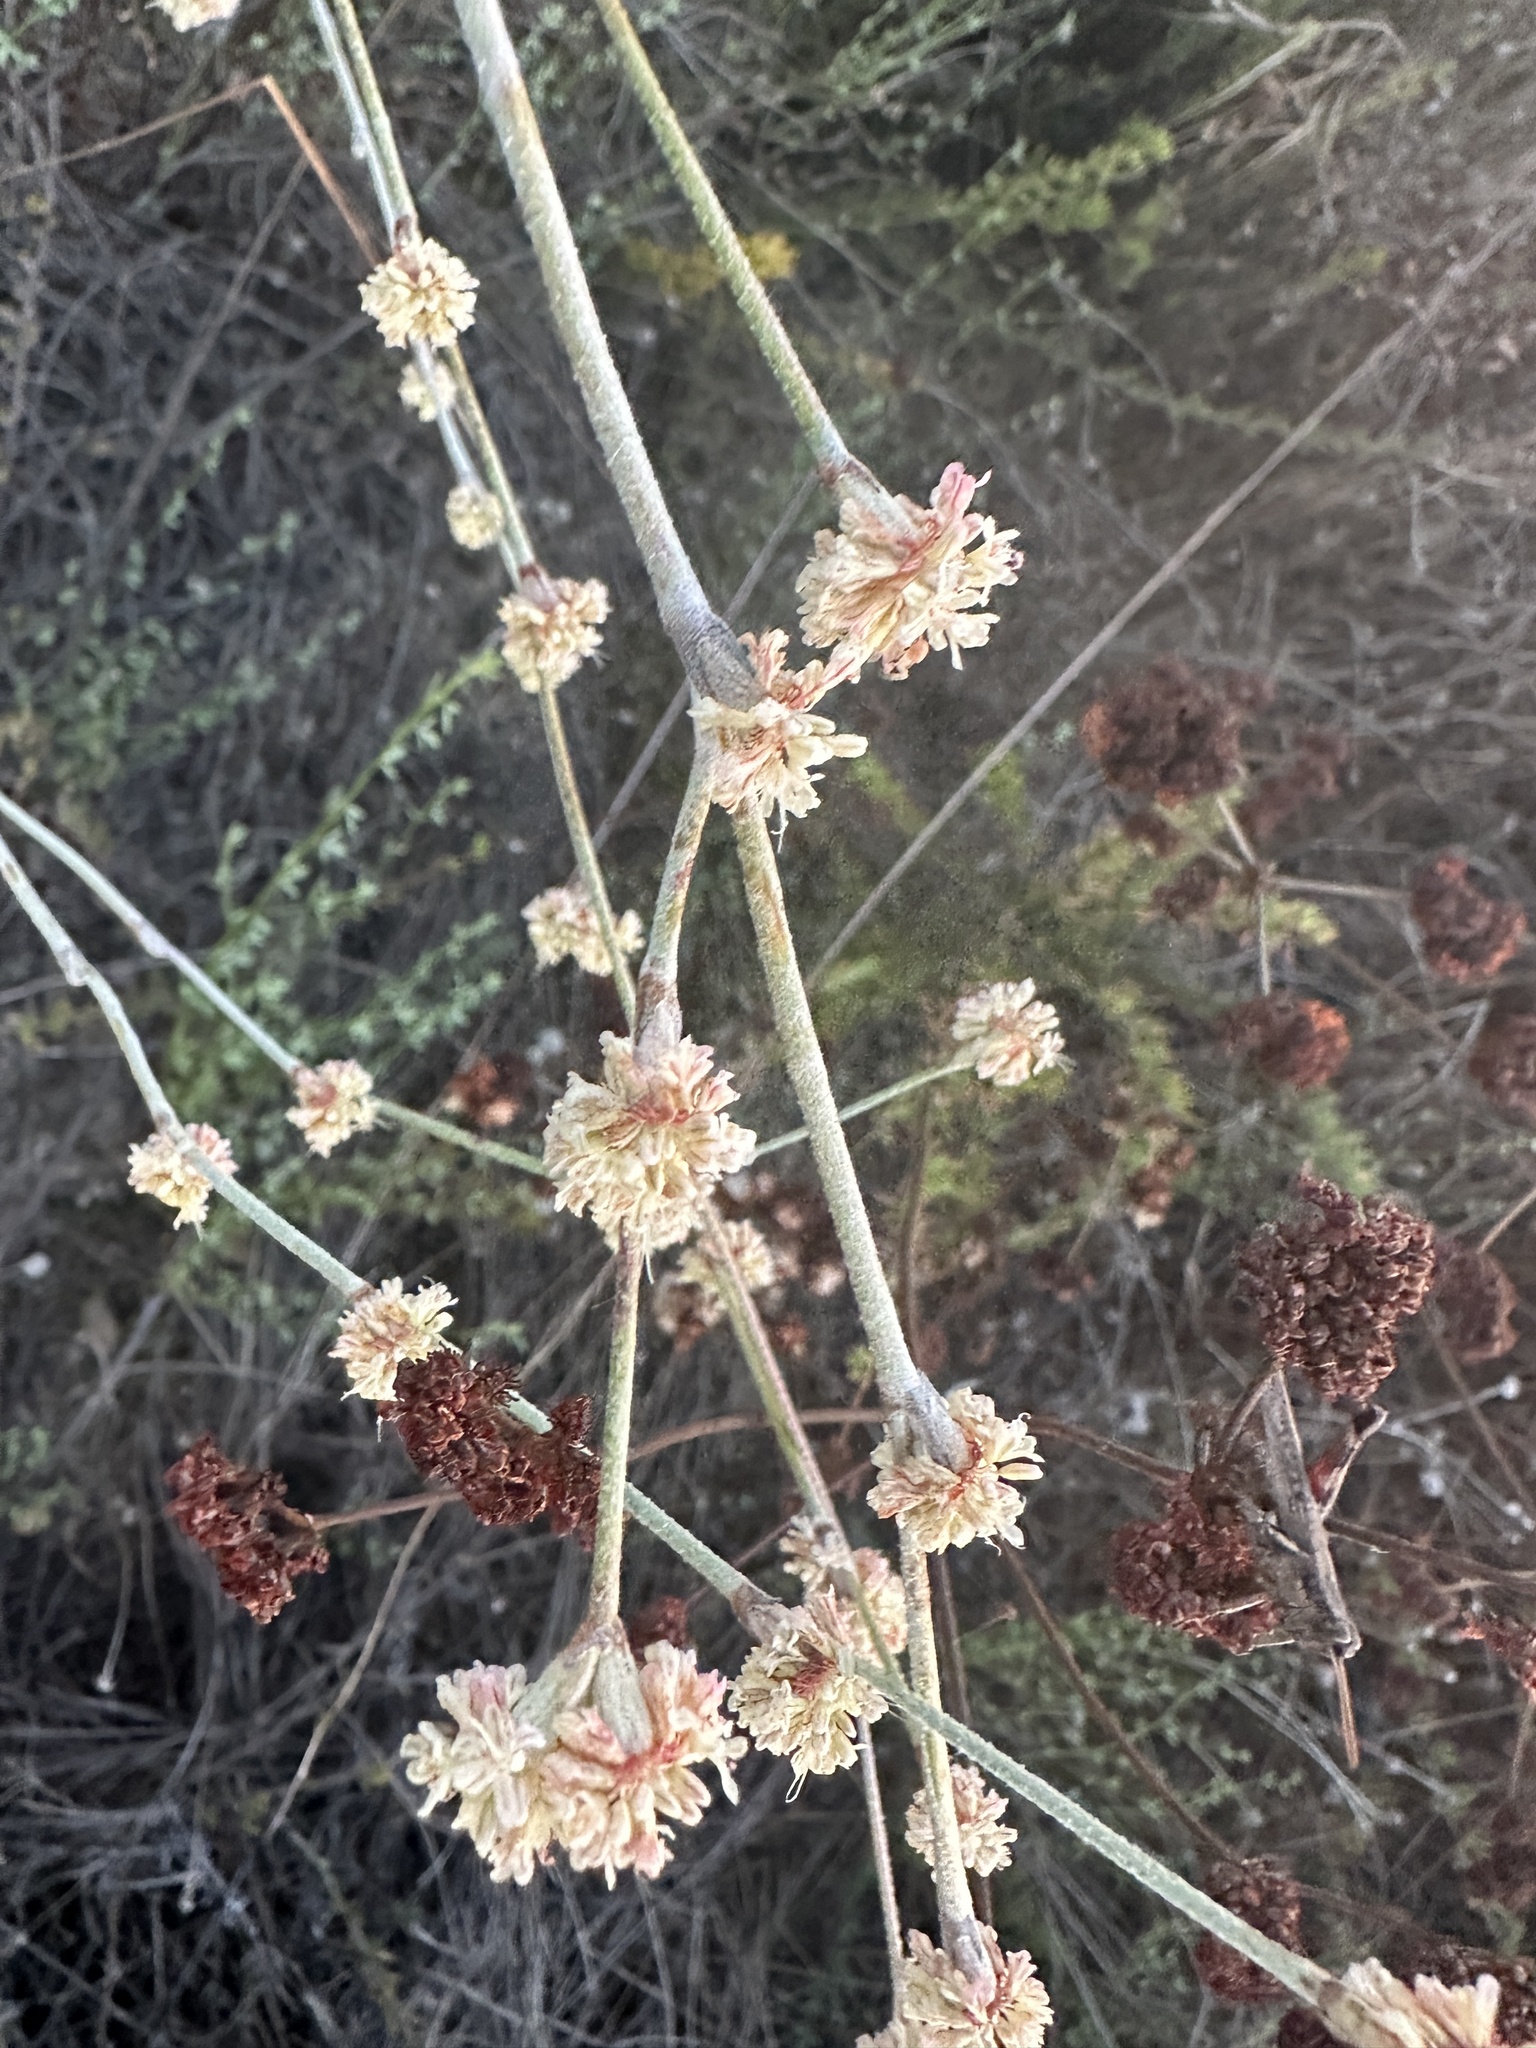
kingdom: Plantae
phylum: Tracheophyta
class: Magnoliopsida
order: Caryophyllales
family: Polygonaceae
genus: Eriogonum
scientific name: Eriogonum elongatum
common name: Long-stem wild buckwheat
